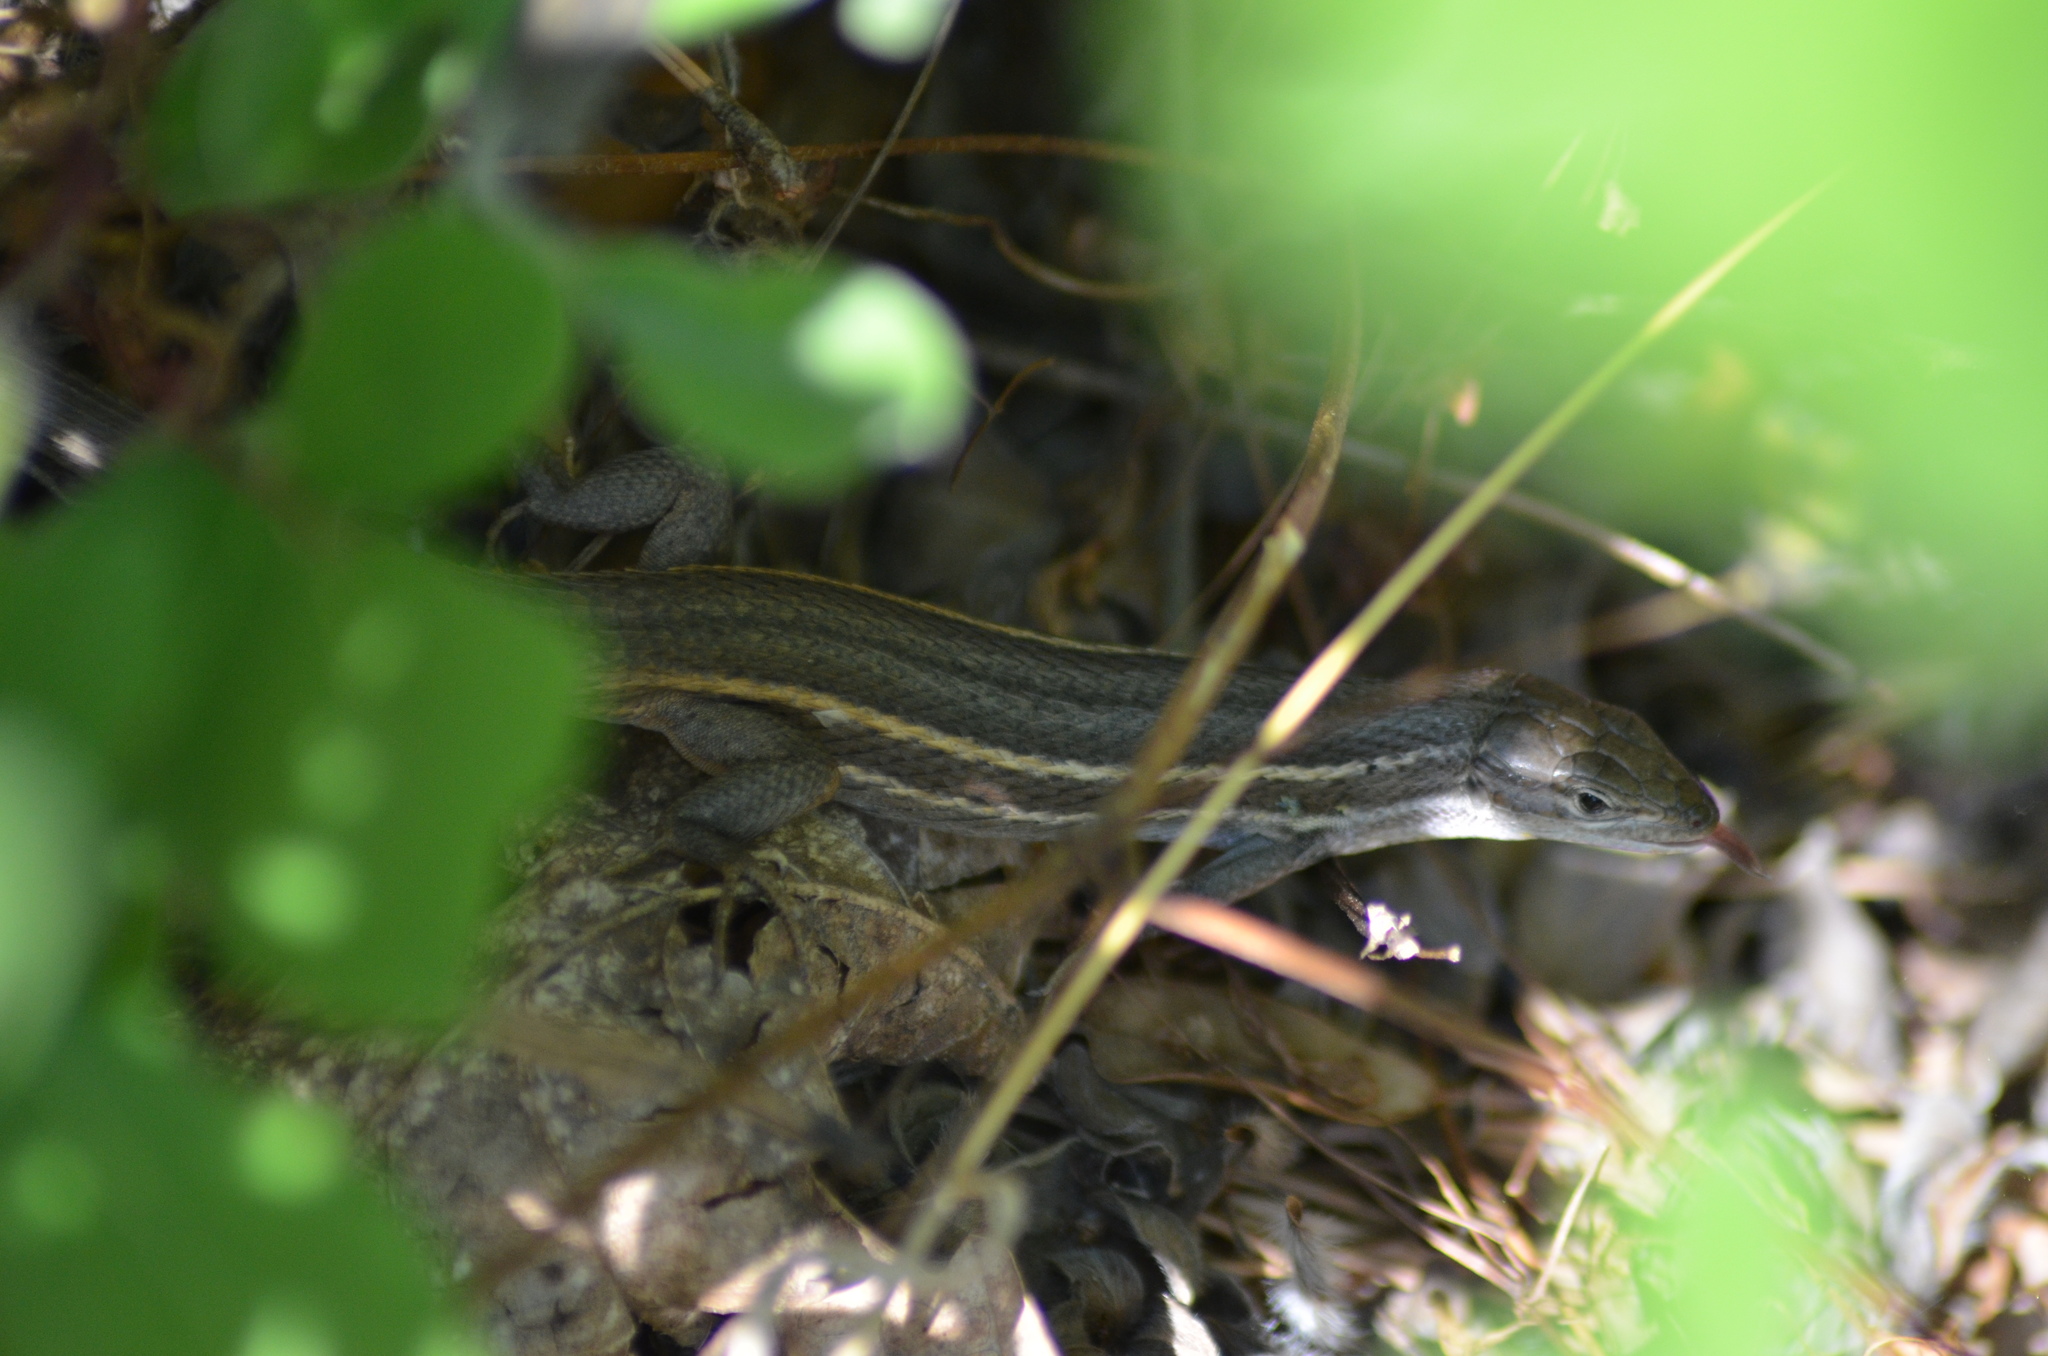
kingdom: Animalia
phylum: Chordata
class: Squamata
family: Lacertidae
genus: Psammodromus
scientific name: Psammodromus algirus
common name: Algerian psammodromus
